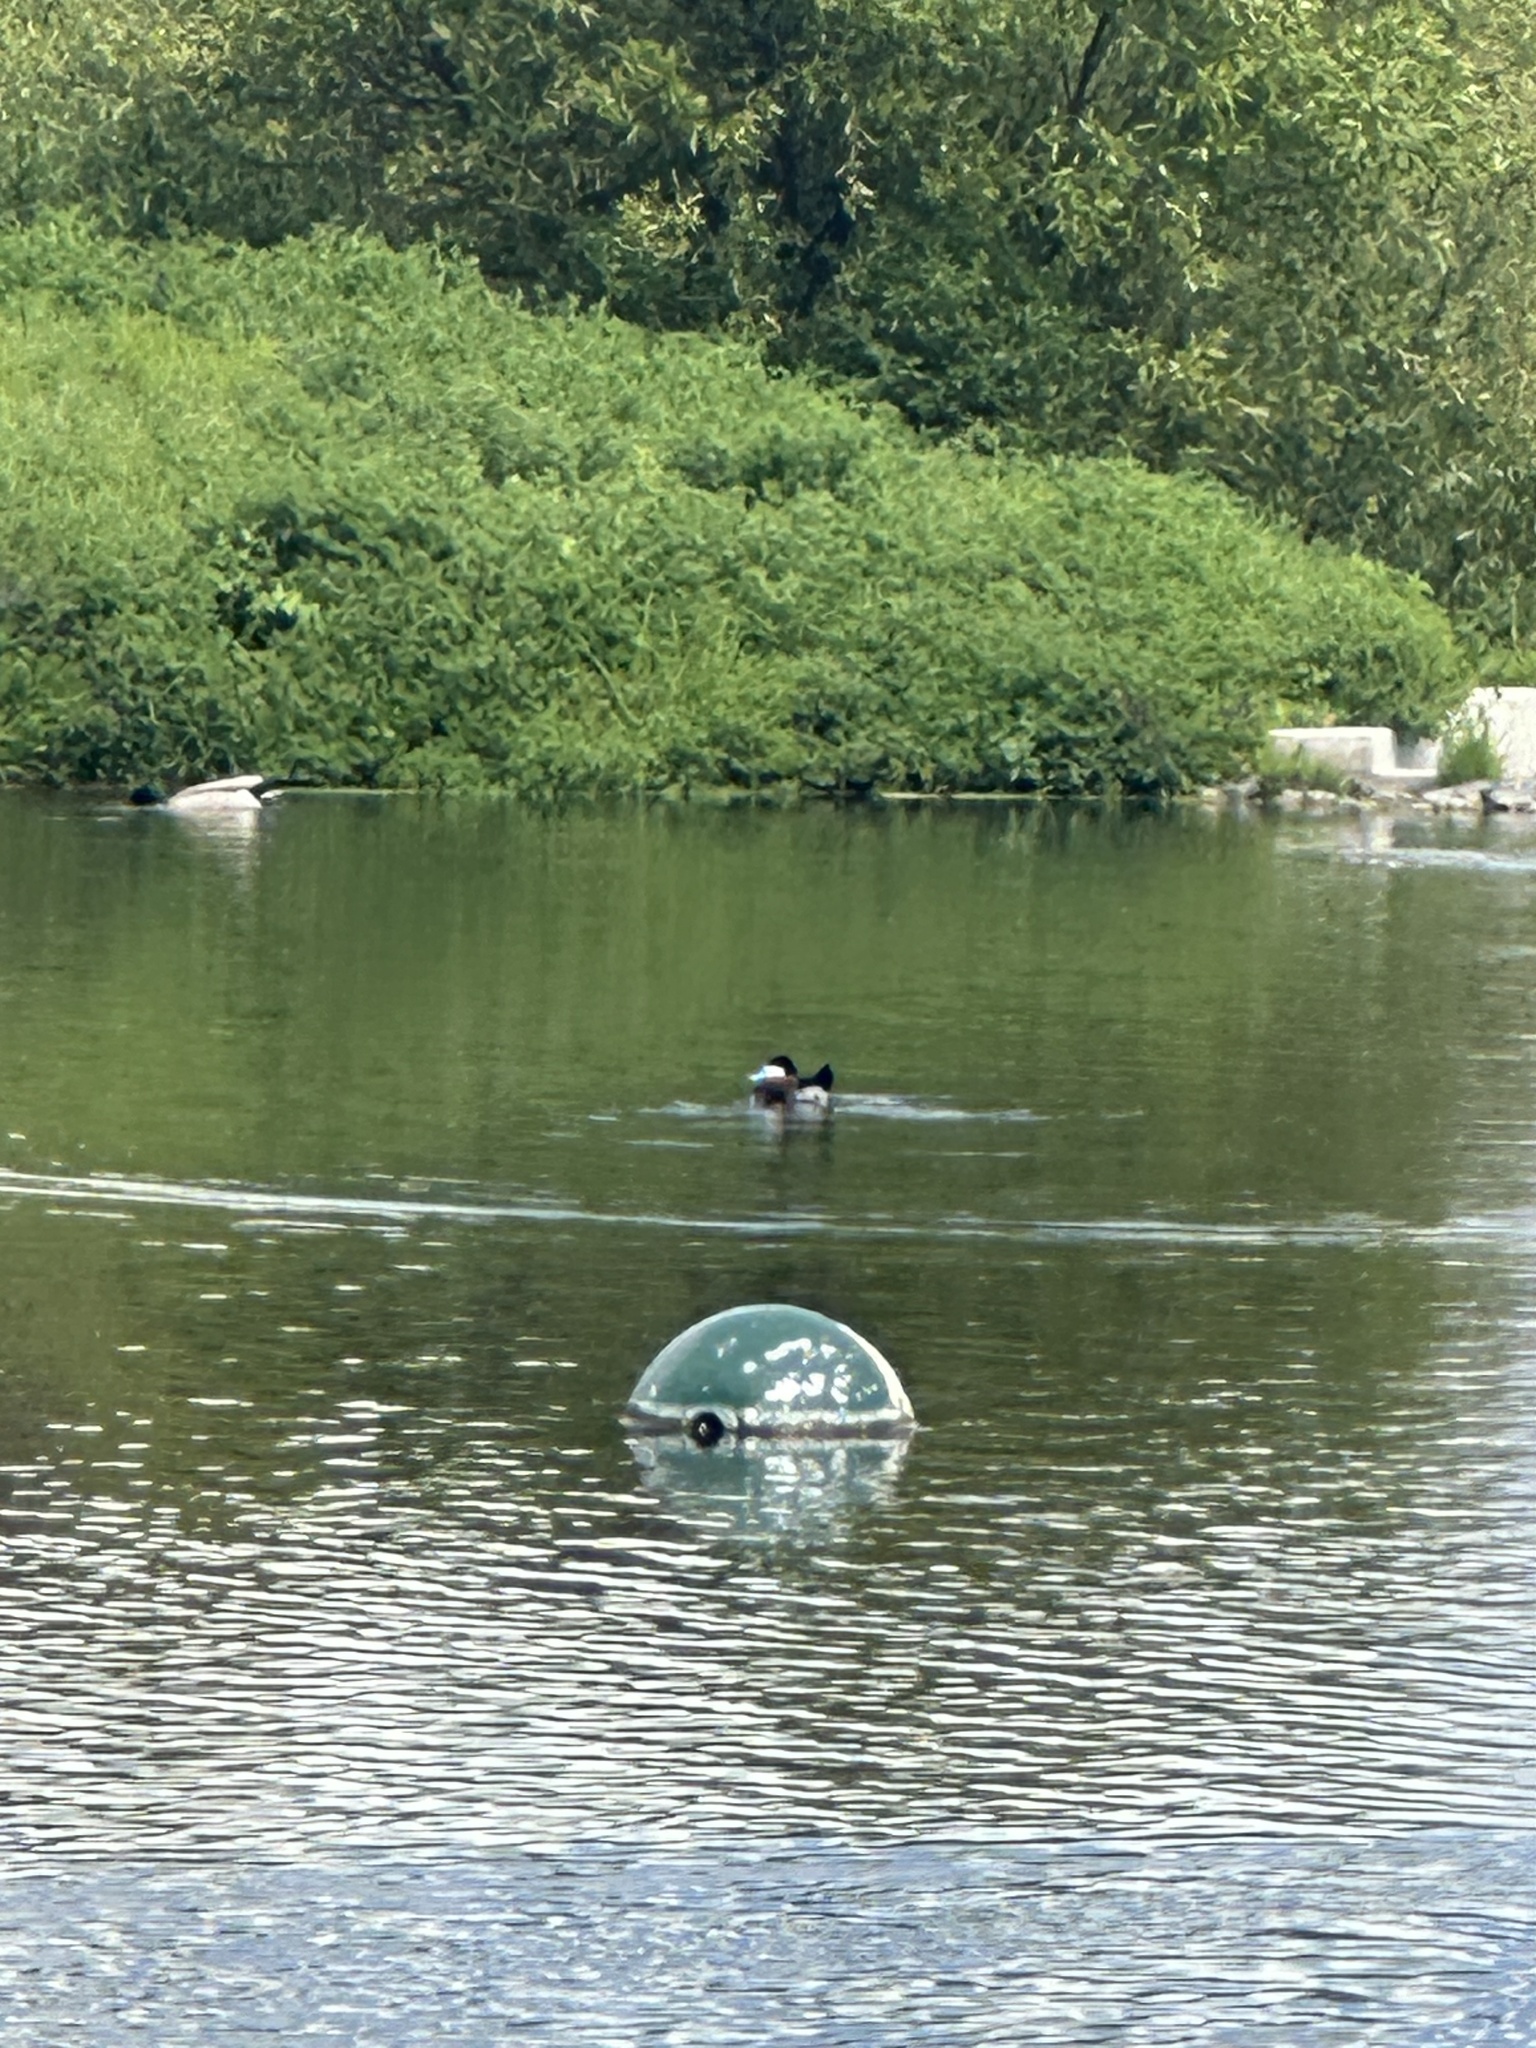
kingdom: Animalia
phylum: Chordata
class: Aves
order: Anseriformes
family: Anatidae
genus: Oxyura
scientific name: Oxyura jamaicensis
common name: Ruddy duck
